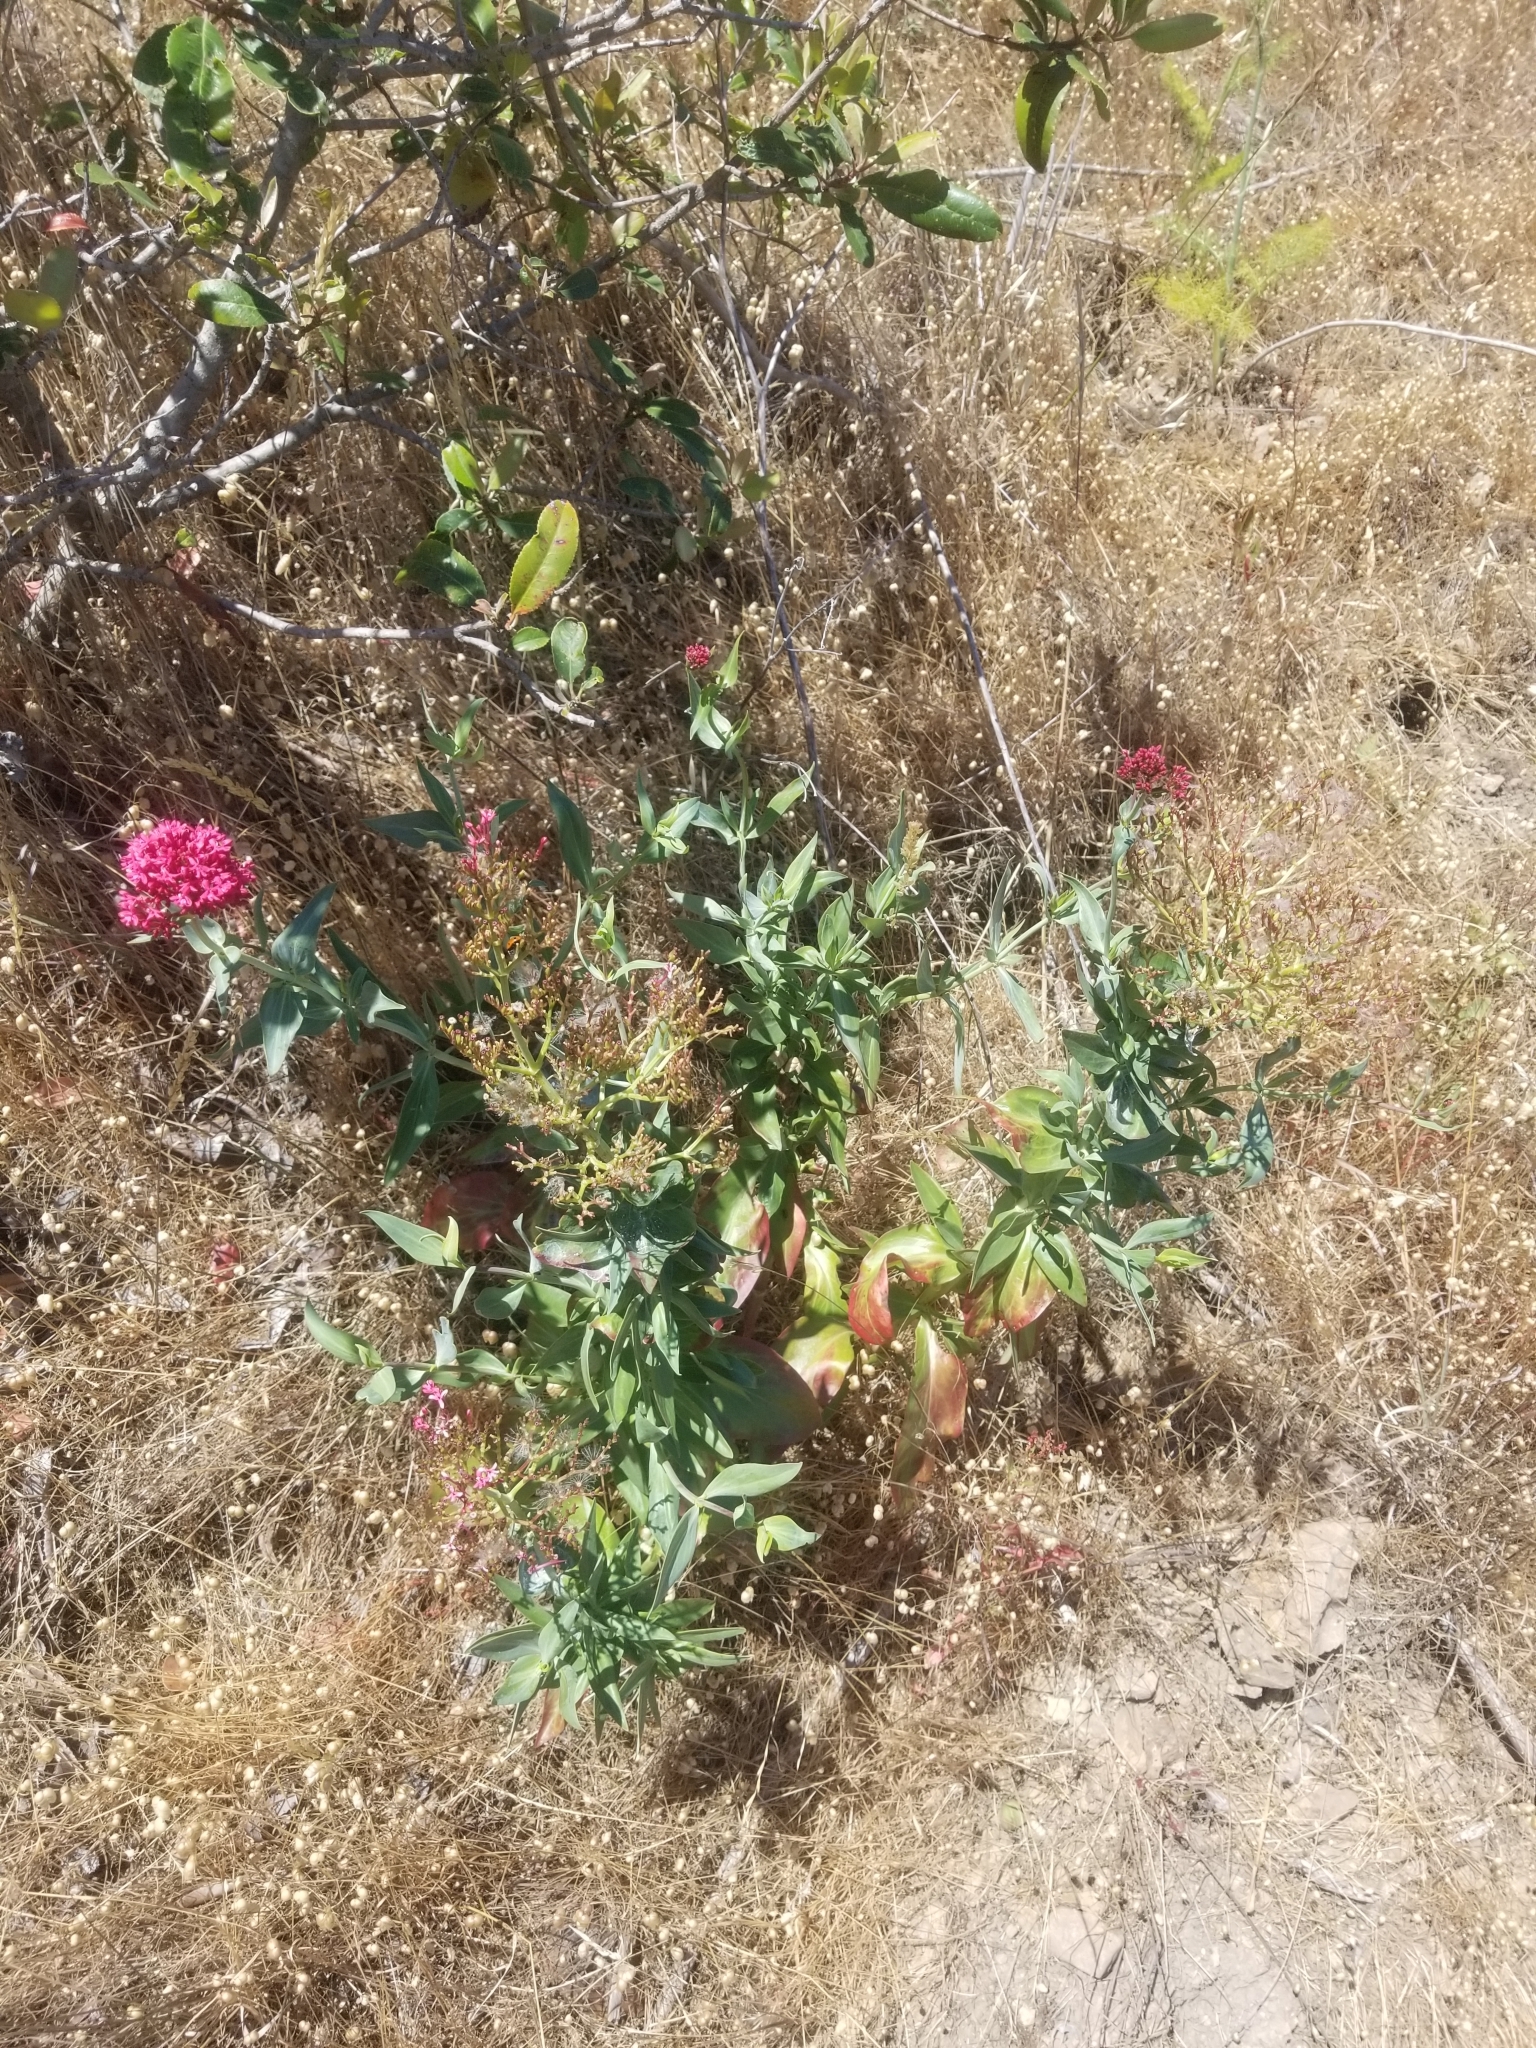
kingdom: Plantae
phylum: Tracheophyta
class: Magnoliopsida
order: Dipsacales
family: Caprifoliaceae
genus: Centranthus
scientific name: Centranthus ruber
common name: Red valerian
